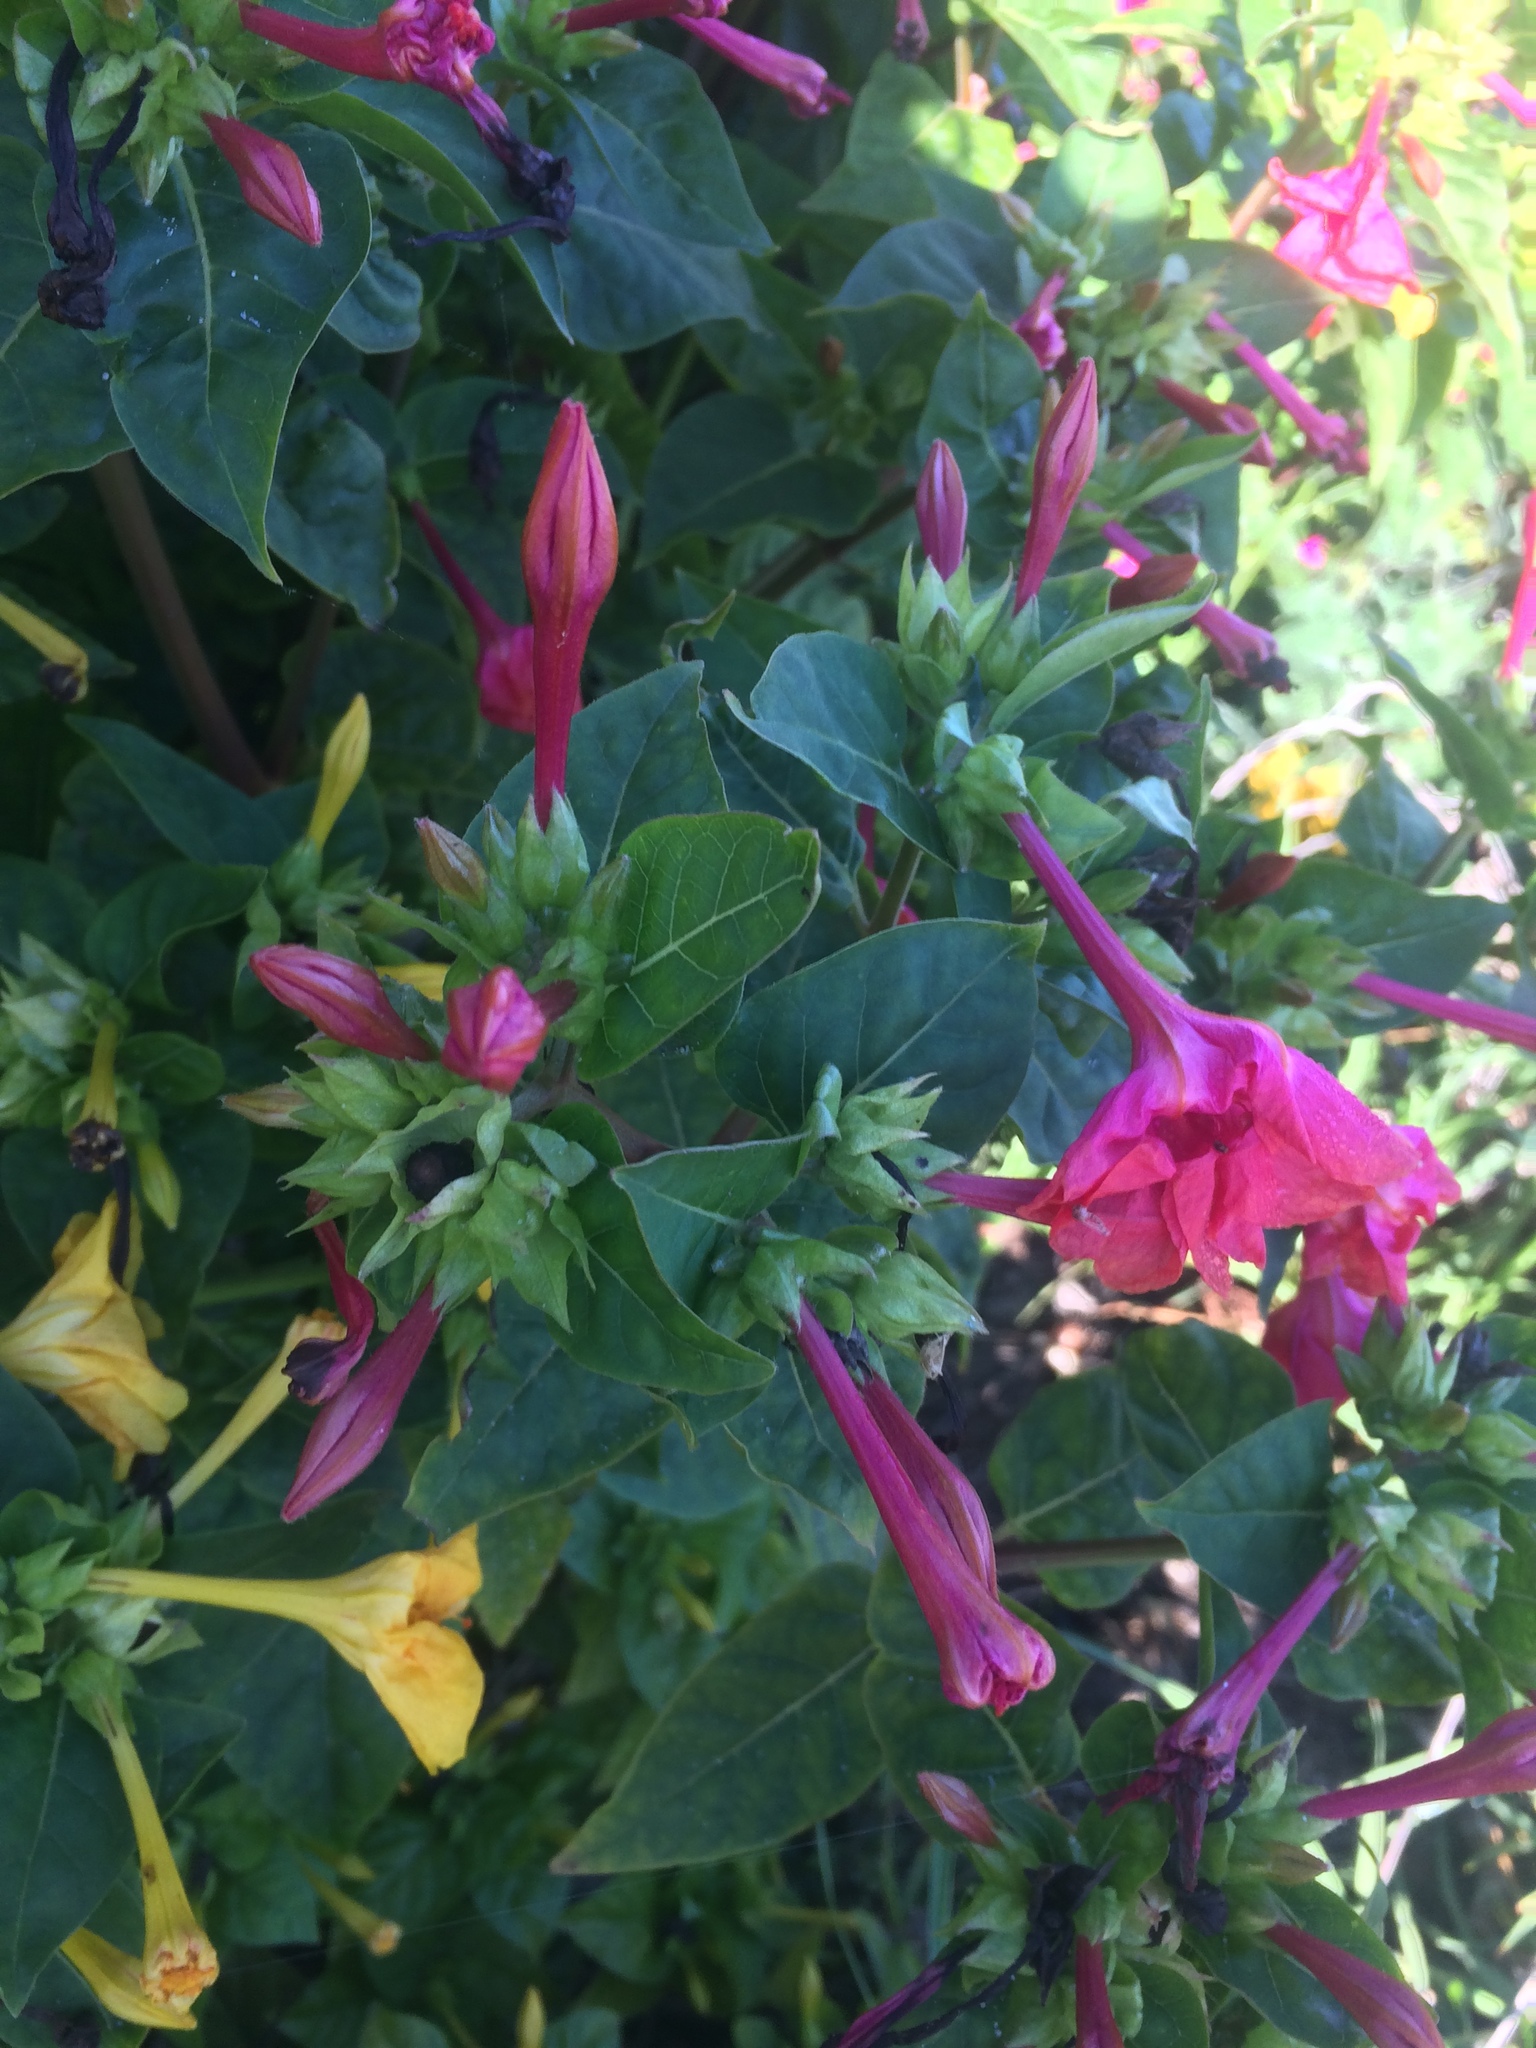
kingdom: Plantae
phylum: Tracheophyta
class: Magnoliopsida
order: Caryophyllales
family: Nyctaginaceae
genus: Mirabilis
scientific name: Mirabilis jalapa
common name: Marvel-of-peru
